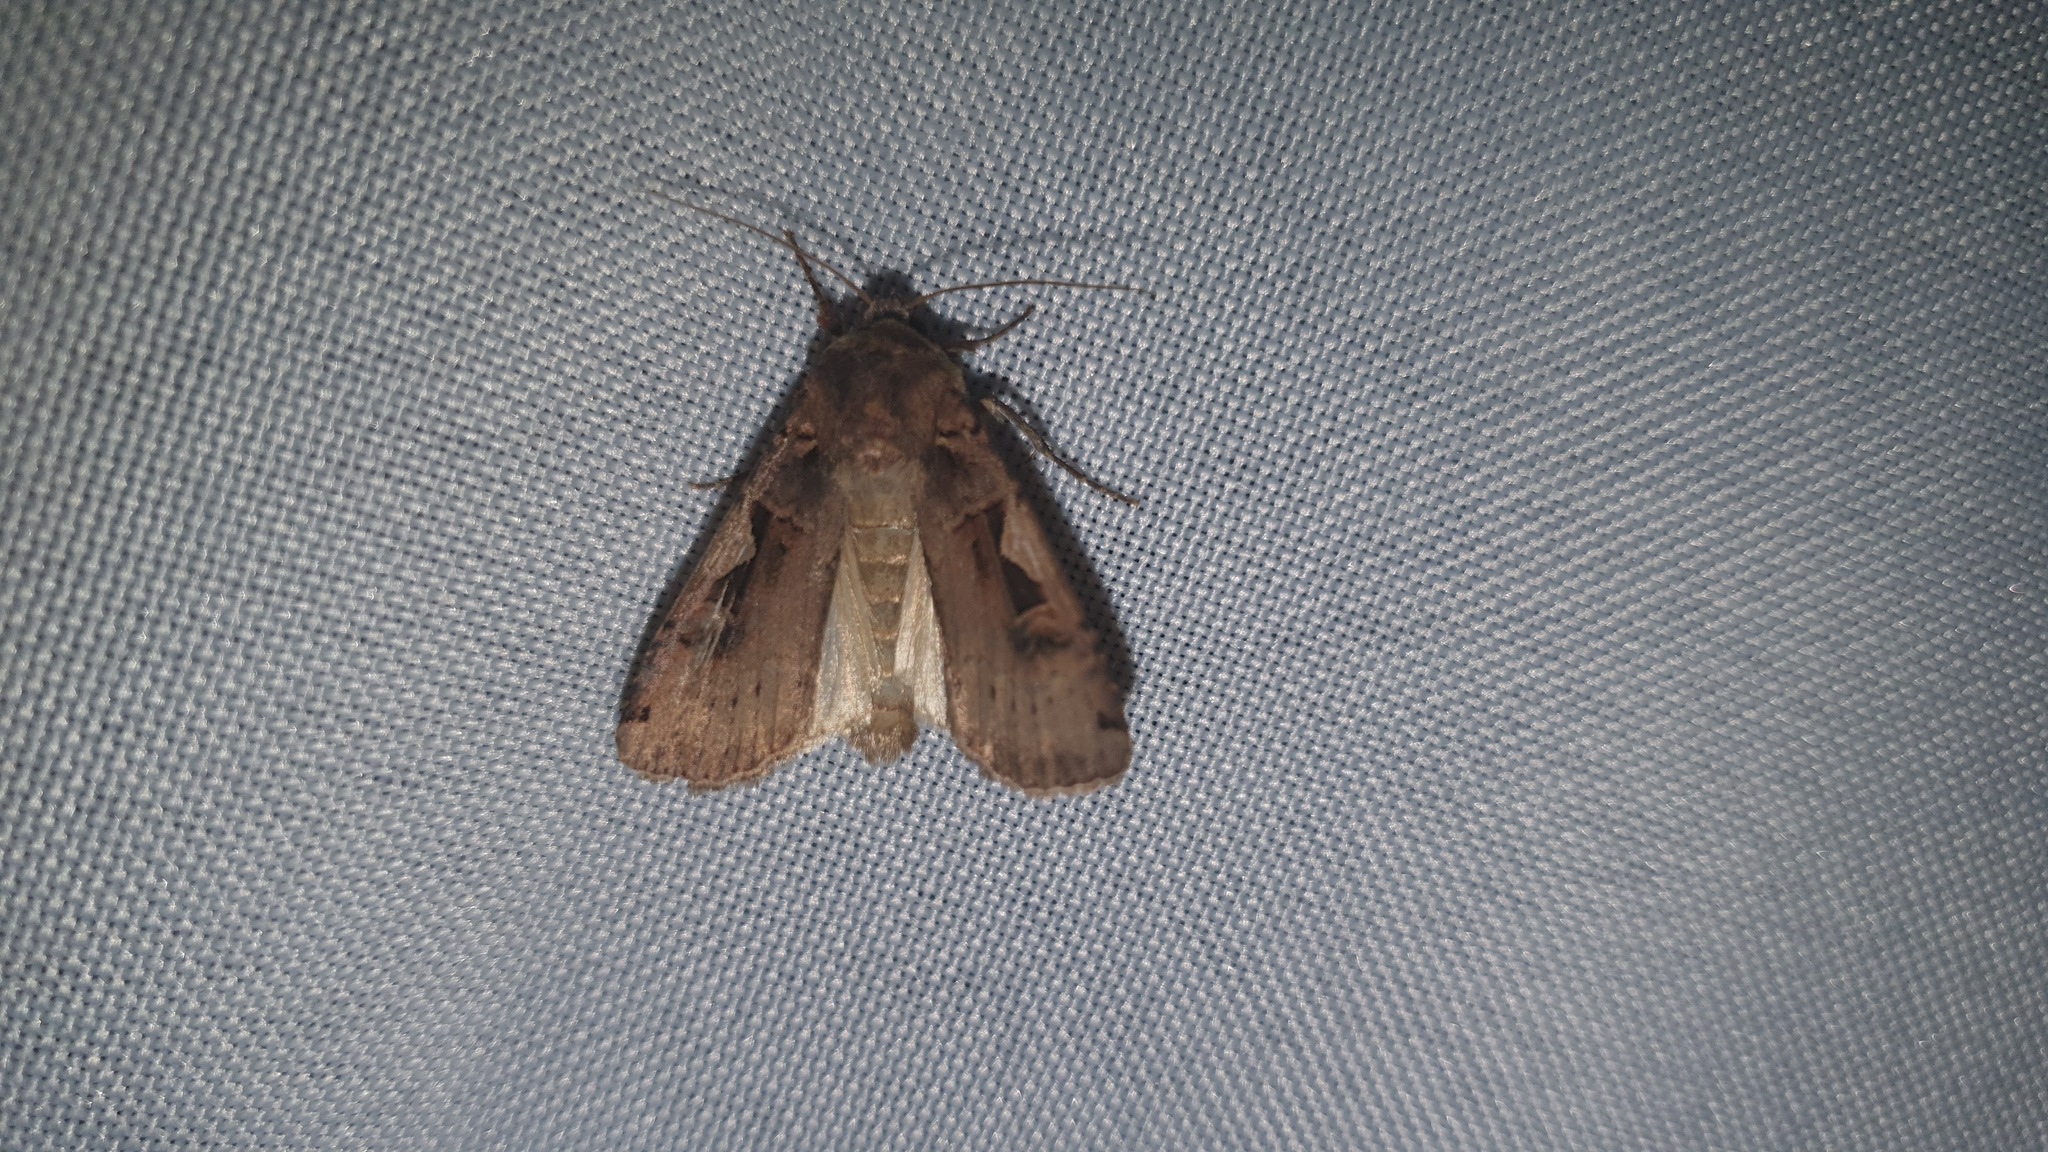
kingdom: Animalia
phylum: Arthropoda
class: Insecta
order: Lepidoptera
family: Noctuidae
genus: Xestia
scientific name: Xestia c-nigrum
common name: Setaceous hebrew character
